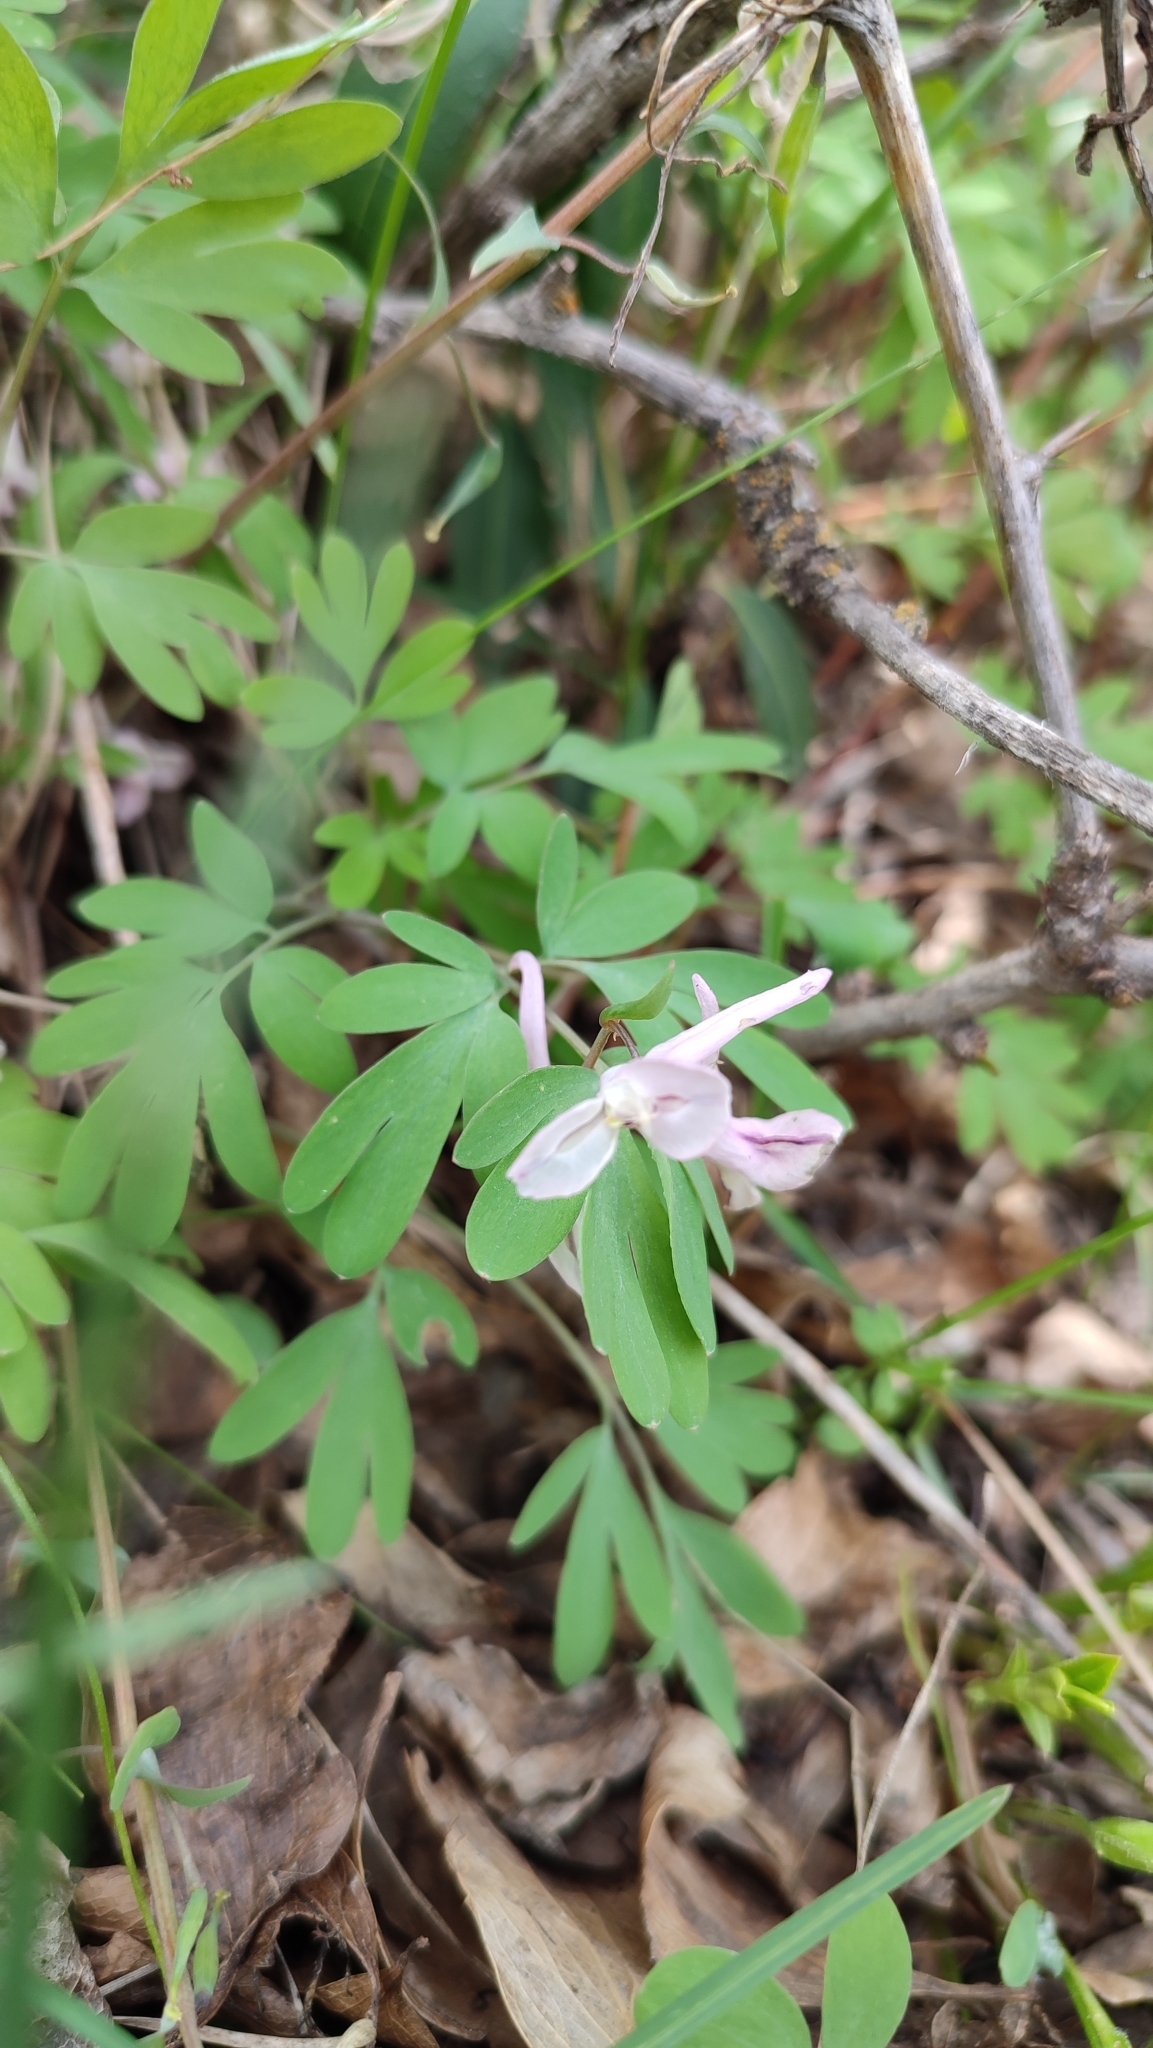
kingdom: Plantae
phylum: Tracheophyta
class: Magnoliopsida
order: Ranunculales
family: Papaveraceae
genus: Corydalis
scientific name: Corydalis glaucescens
